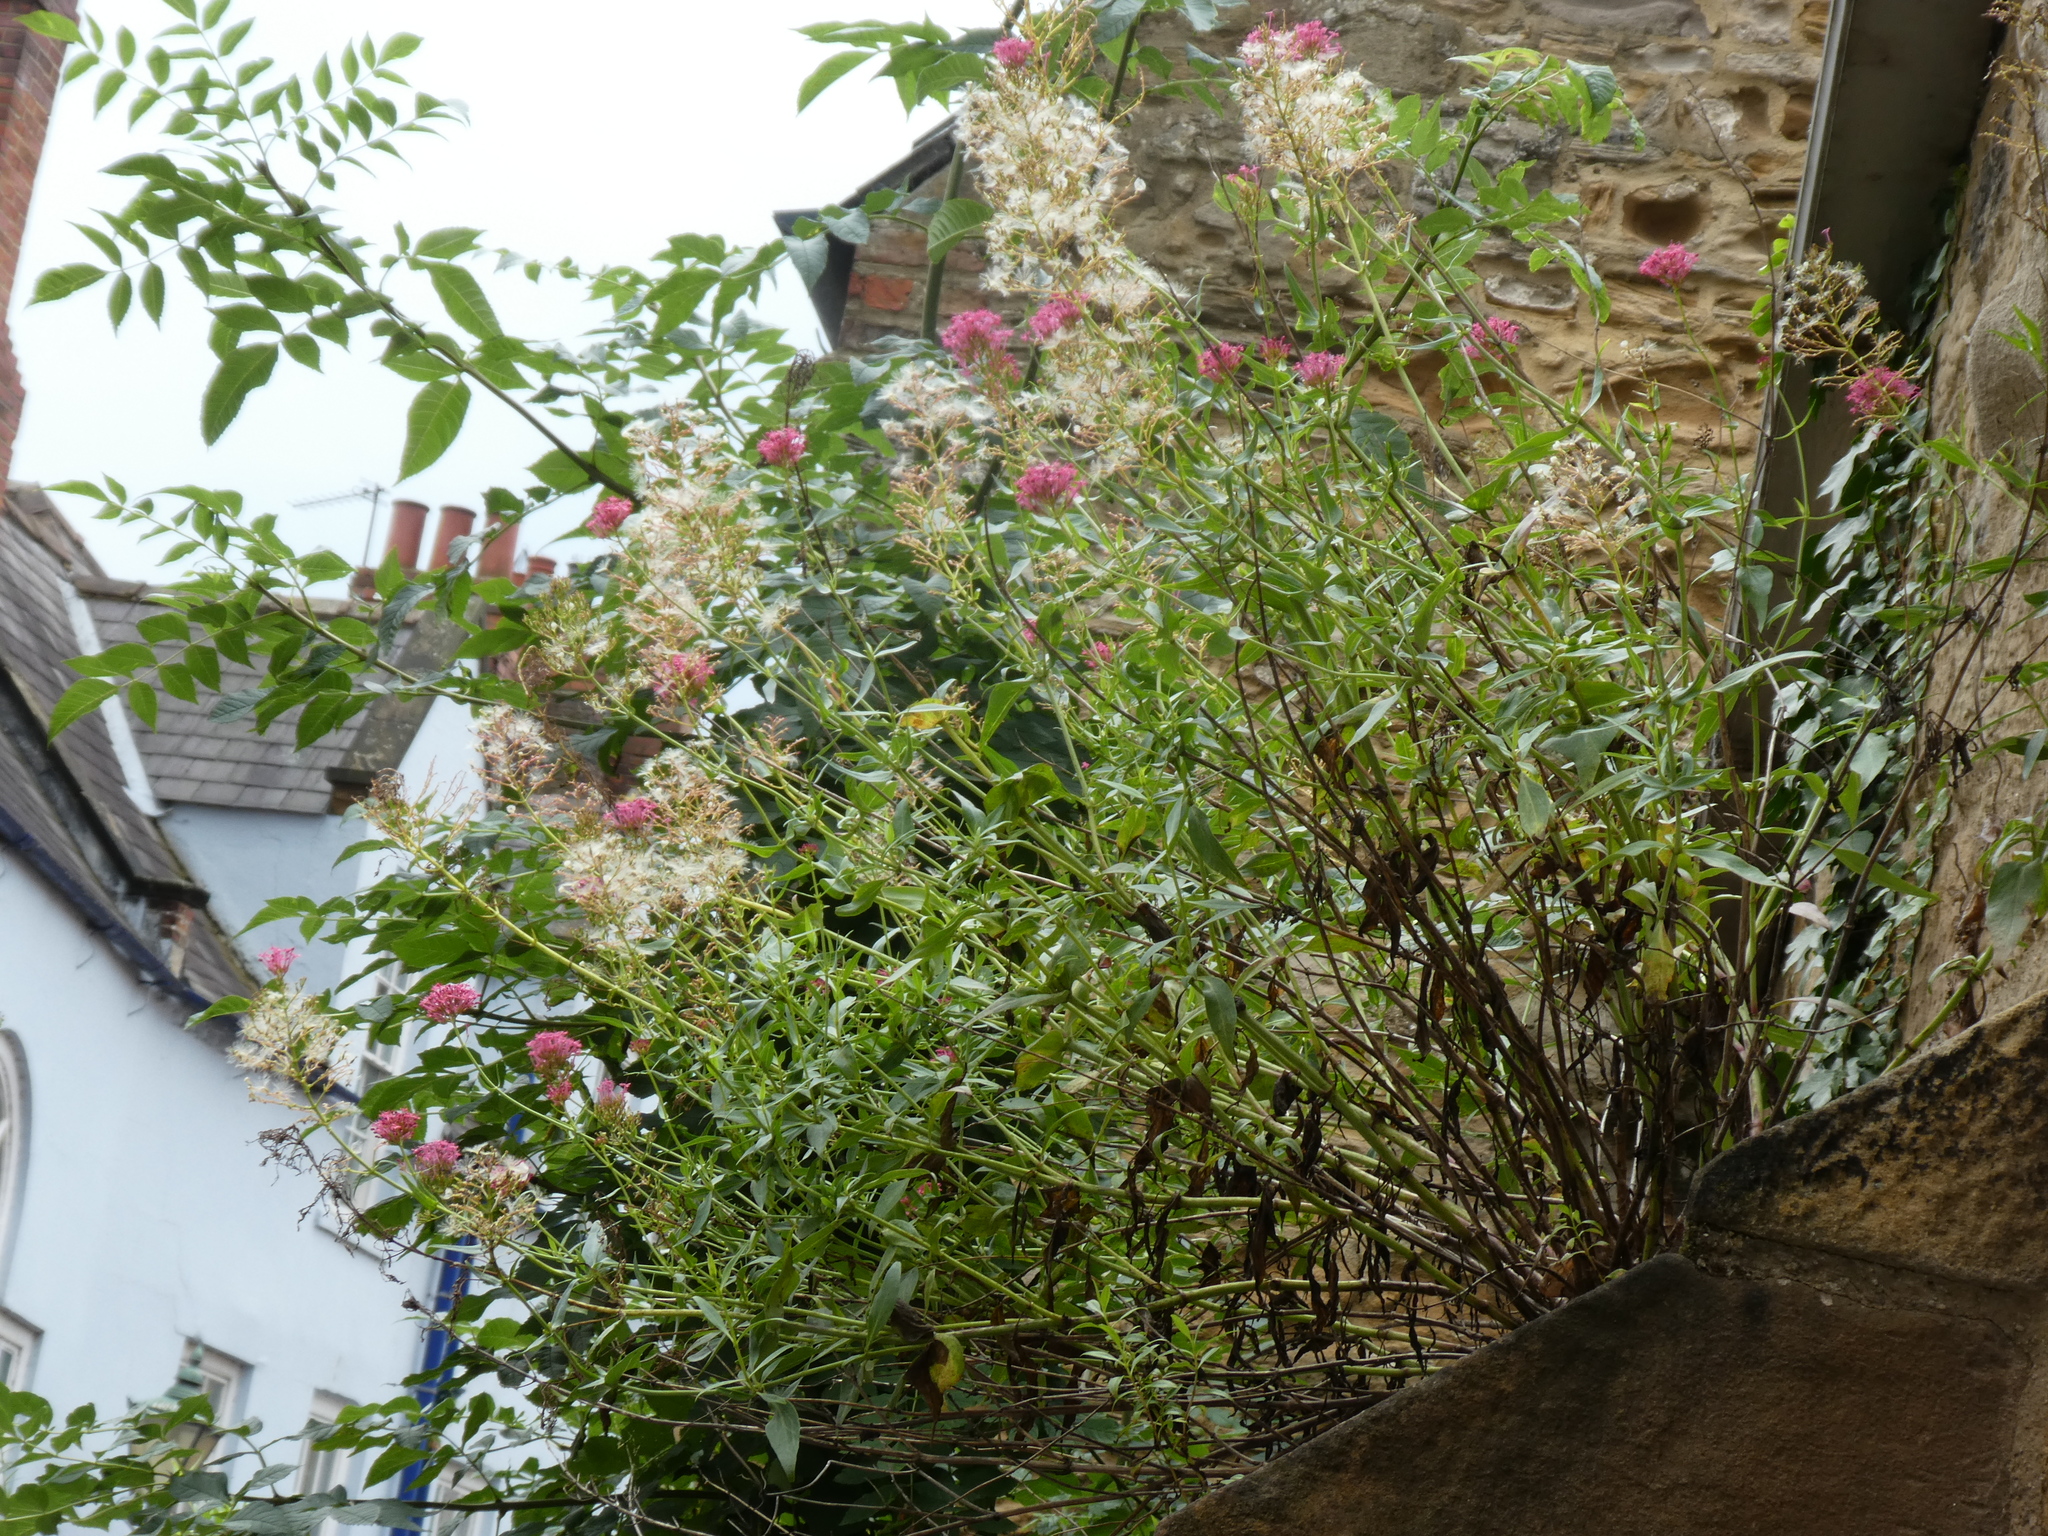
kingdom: Plantae
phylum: Tracheophyta
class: Magnoliopsida
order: Dipsacales
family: Caprifoliaceae
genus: Centranthus
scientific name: Centranthus ruber
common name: Red valerian
